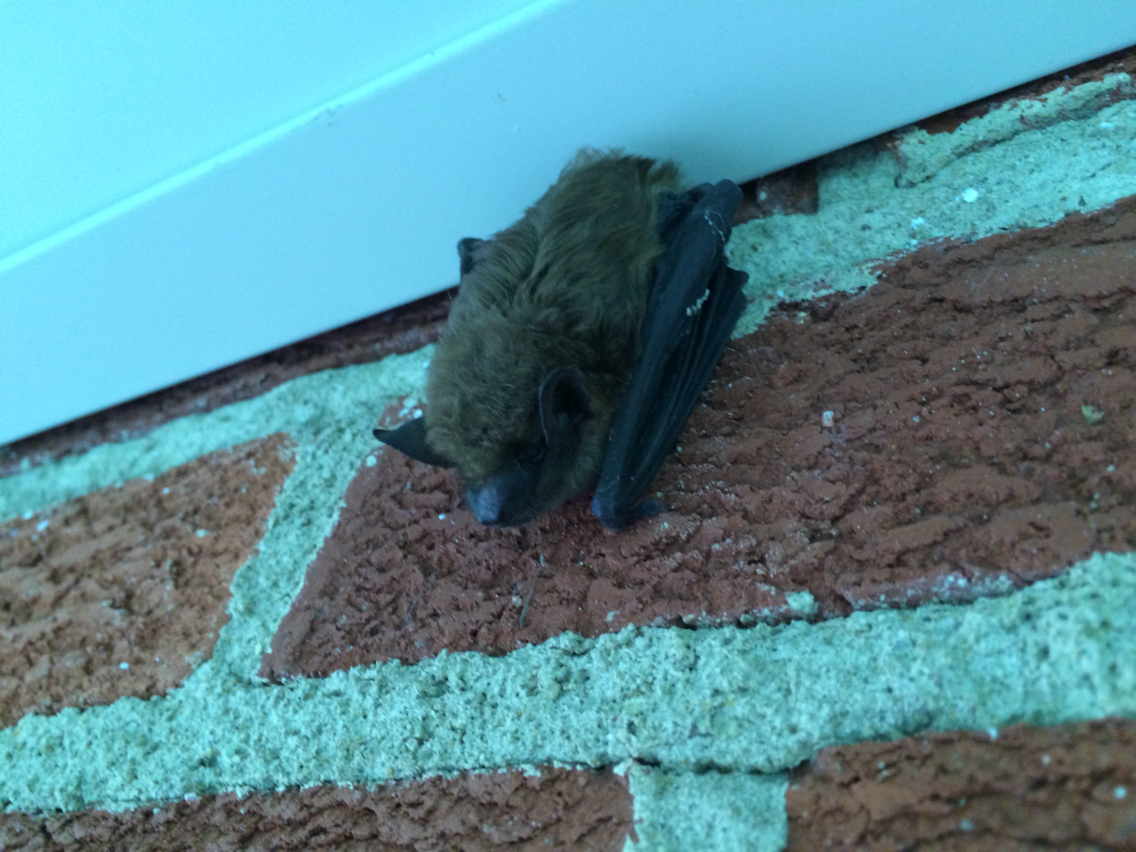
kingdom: Animalia
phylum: Chordata
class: Mammalia
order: Chiroptera
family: Vespertilionidae
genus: Eptesicus
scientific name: Eptesicus fuscus
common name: Big brown bat
